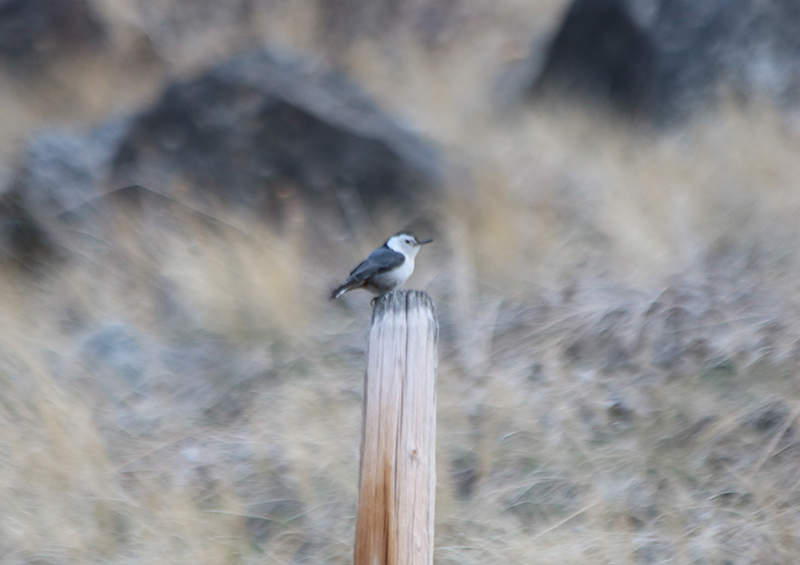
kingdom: Animalia
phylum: Chordata
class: Aves
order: Passeriformes
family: Sittidae
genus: Sitta
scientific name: Sitta carolinensis
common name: White-breasted nuthatch
